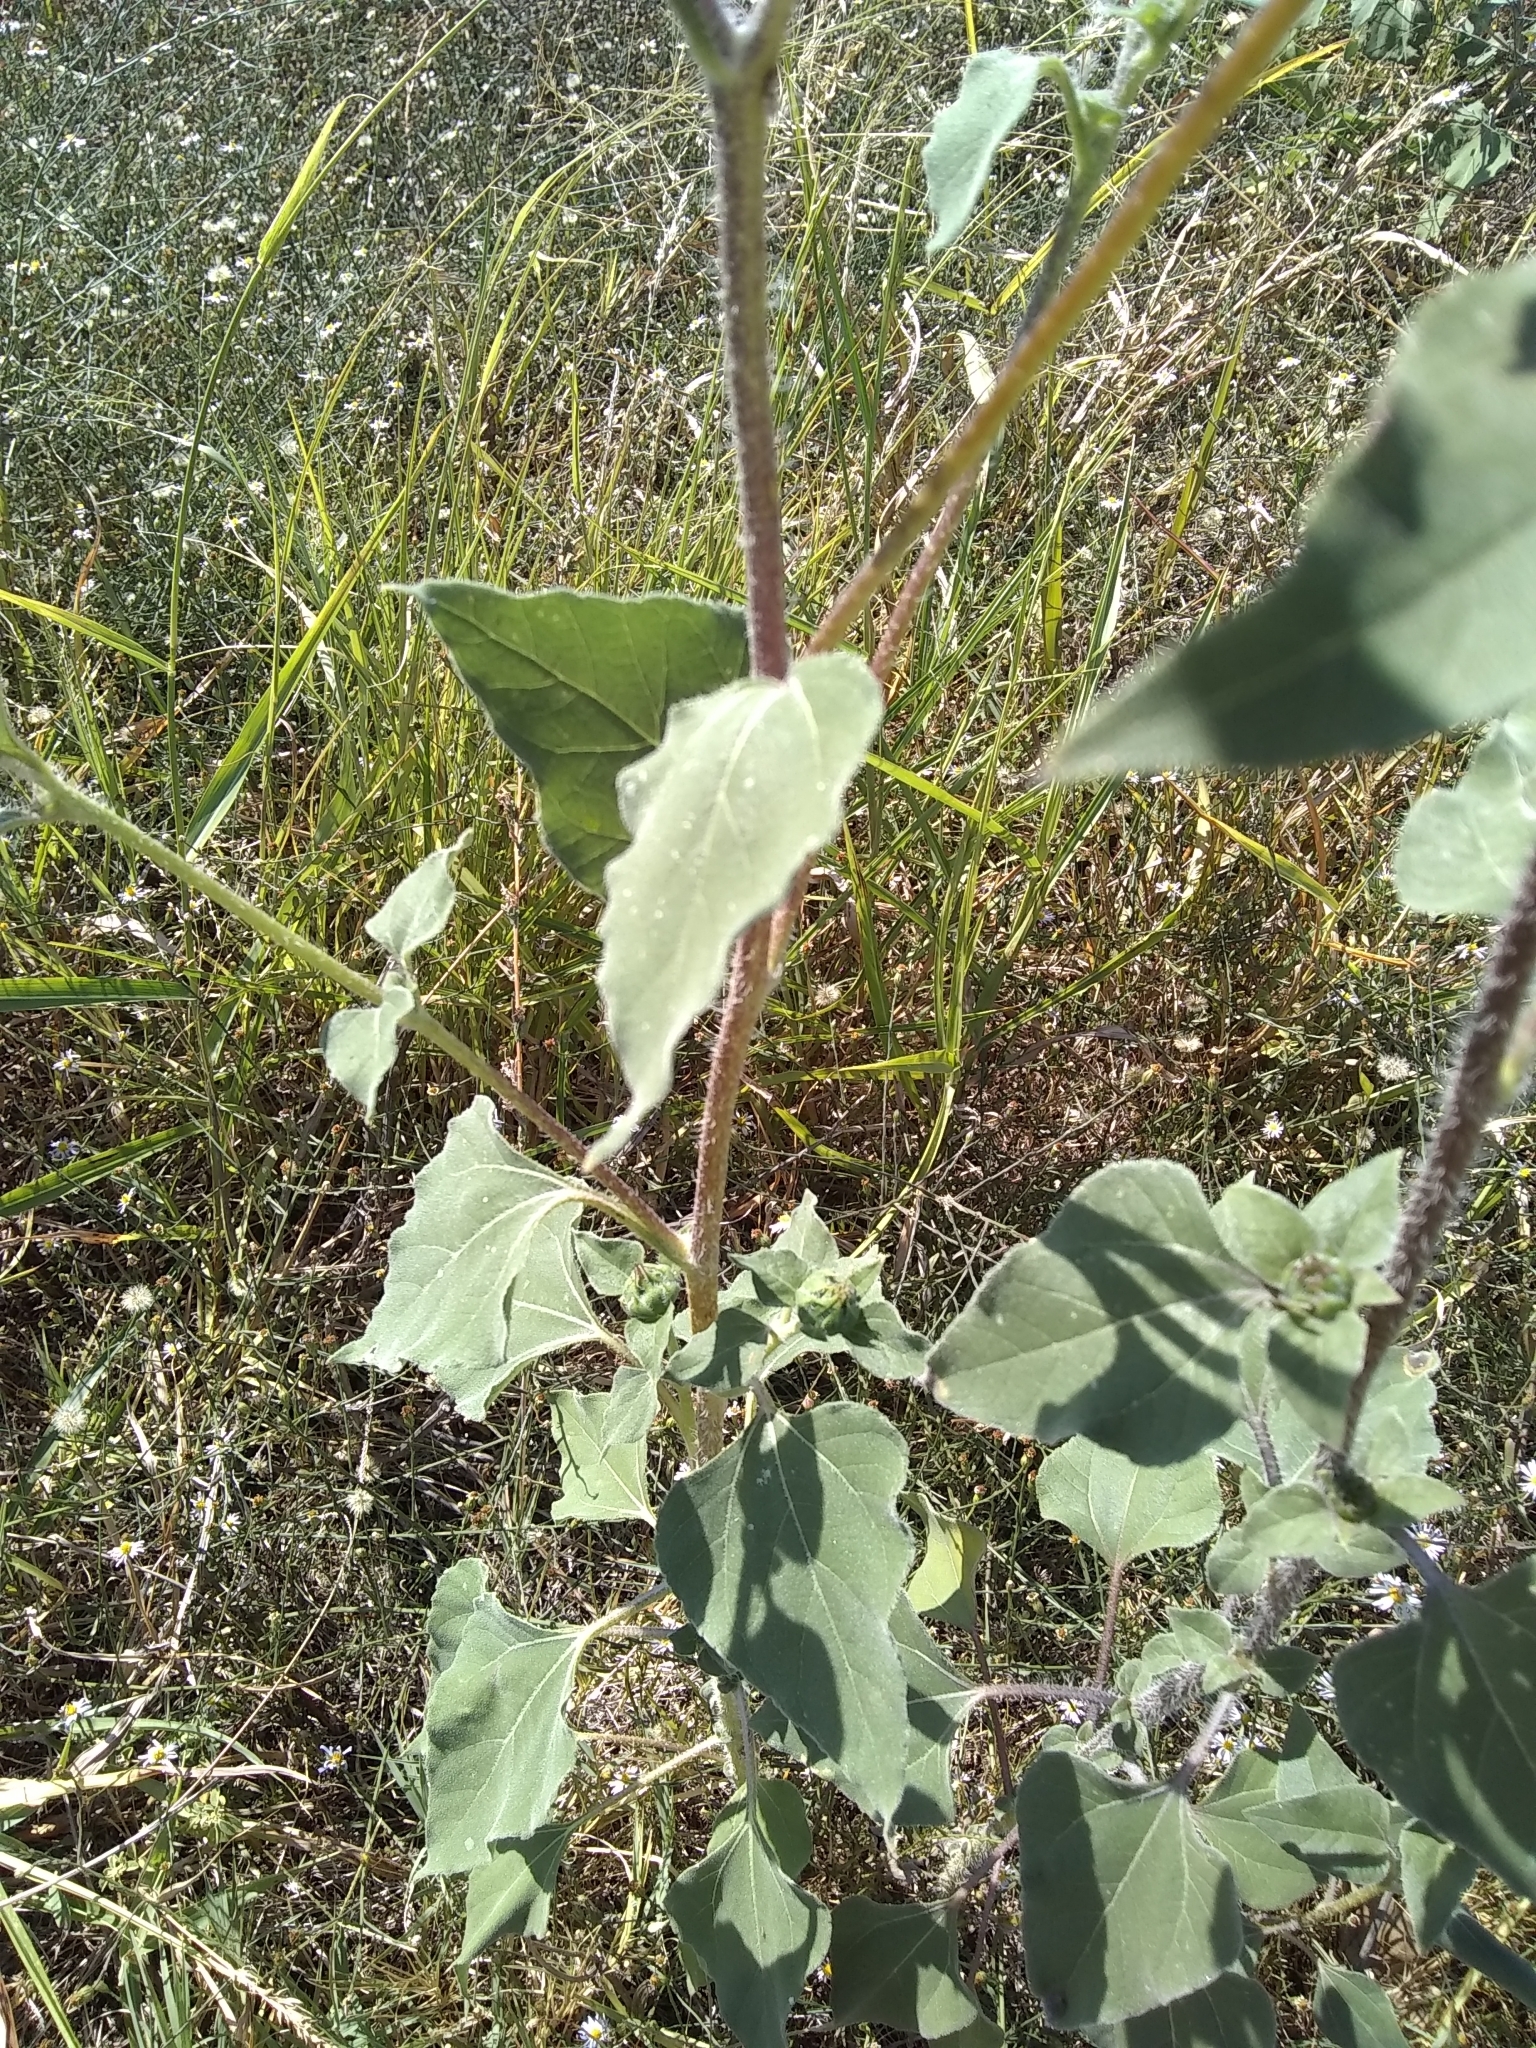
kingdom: Plantae
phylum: Tracheophyta
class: Magnoliopsida
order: Asterales
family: Asteraceae
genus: Helianthus
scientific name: Helianthus annuus
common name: Sunflower
